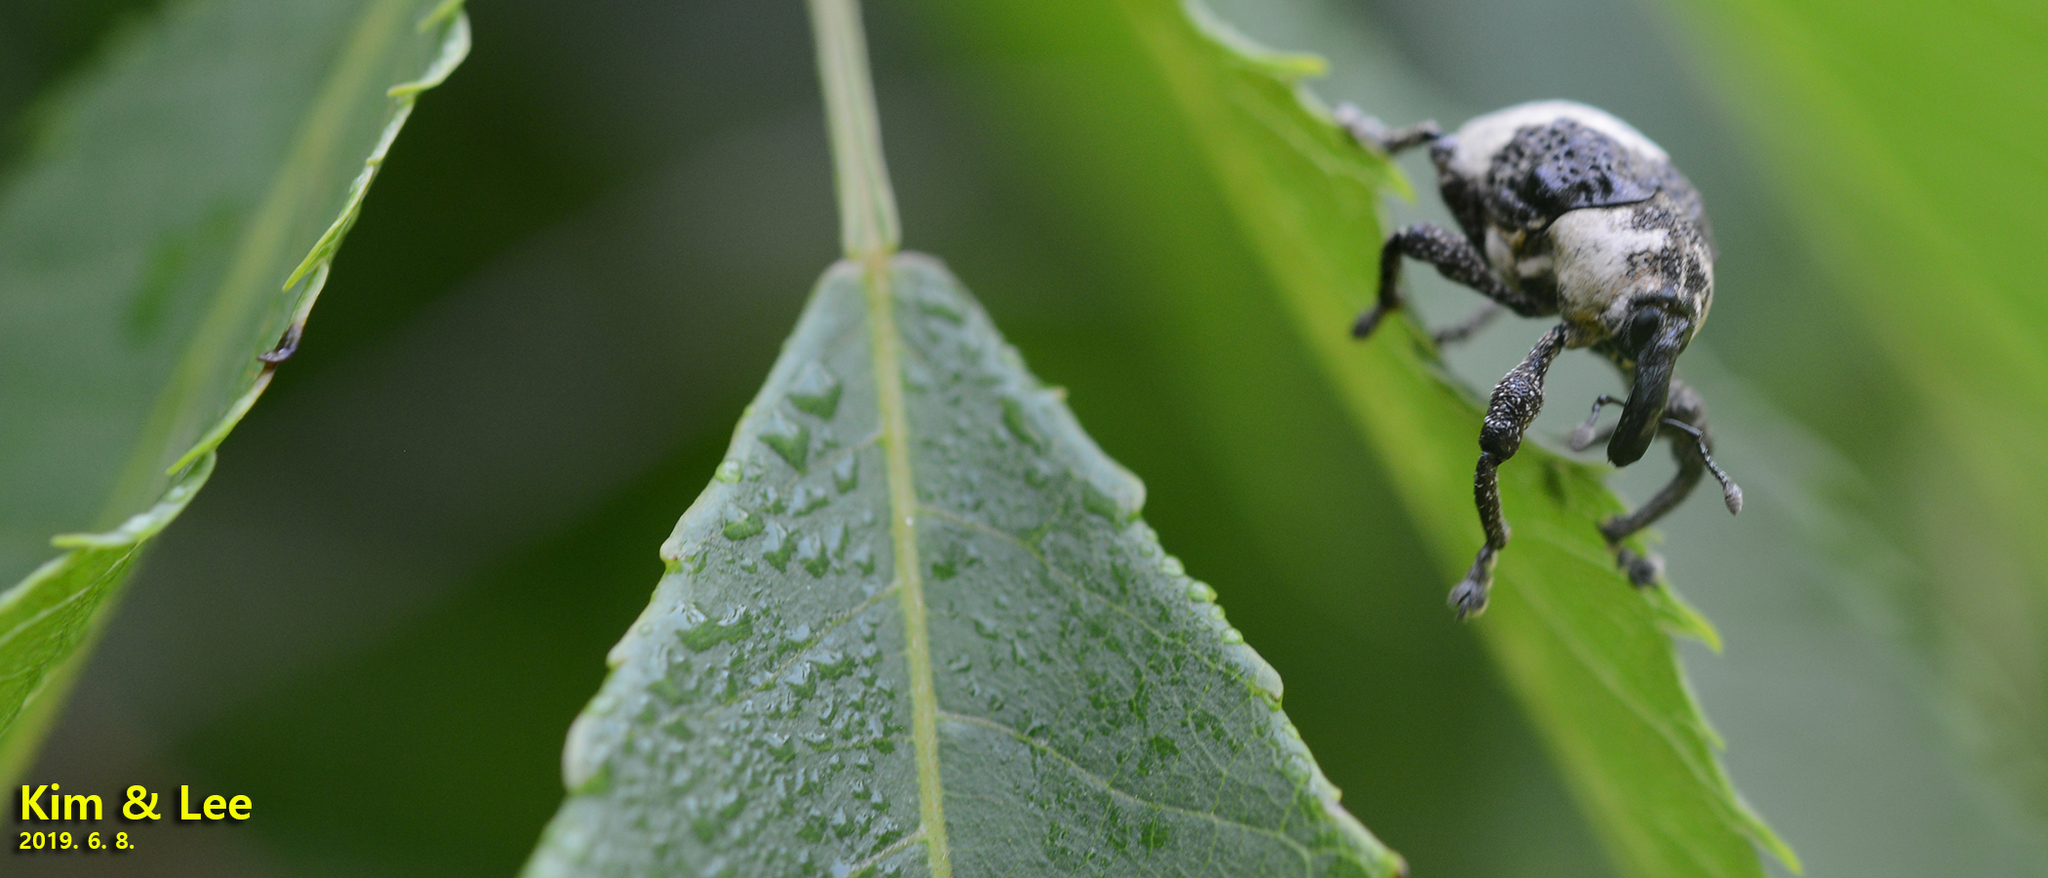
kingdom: Animalia
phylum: Arthropoda
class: Insecta
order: Coleoptera
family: Curculionidae
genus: Alcides
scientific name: Alcides trifidus
